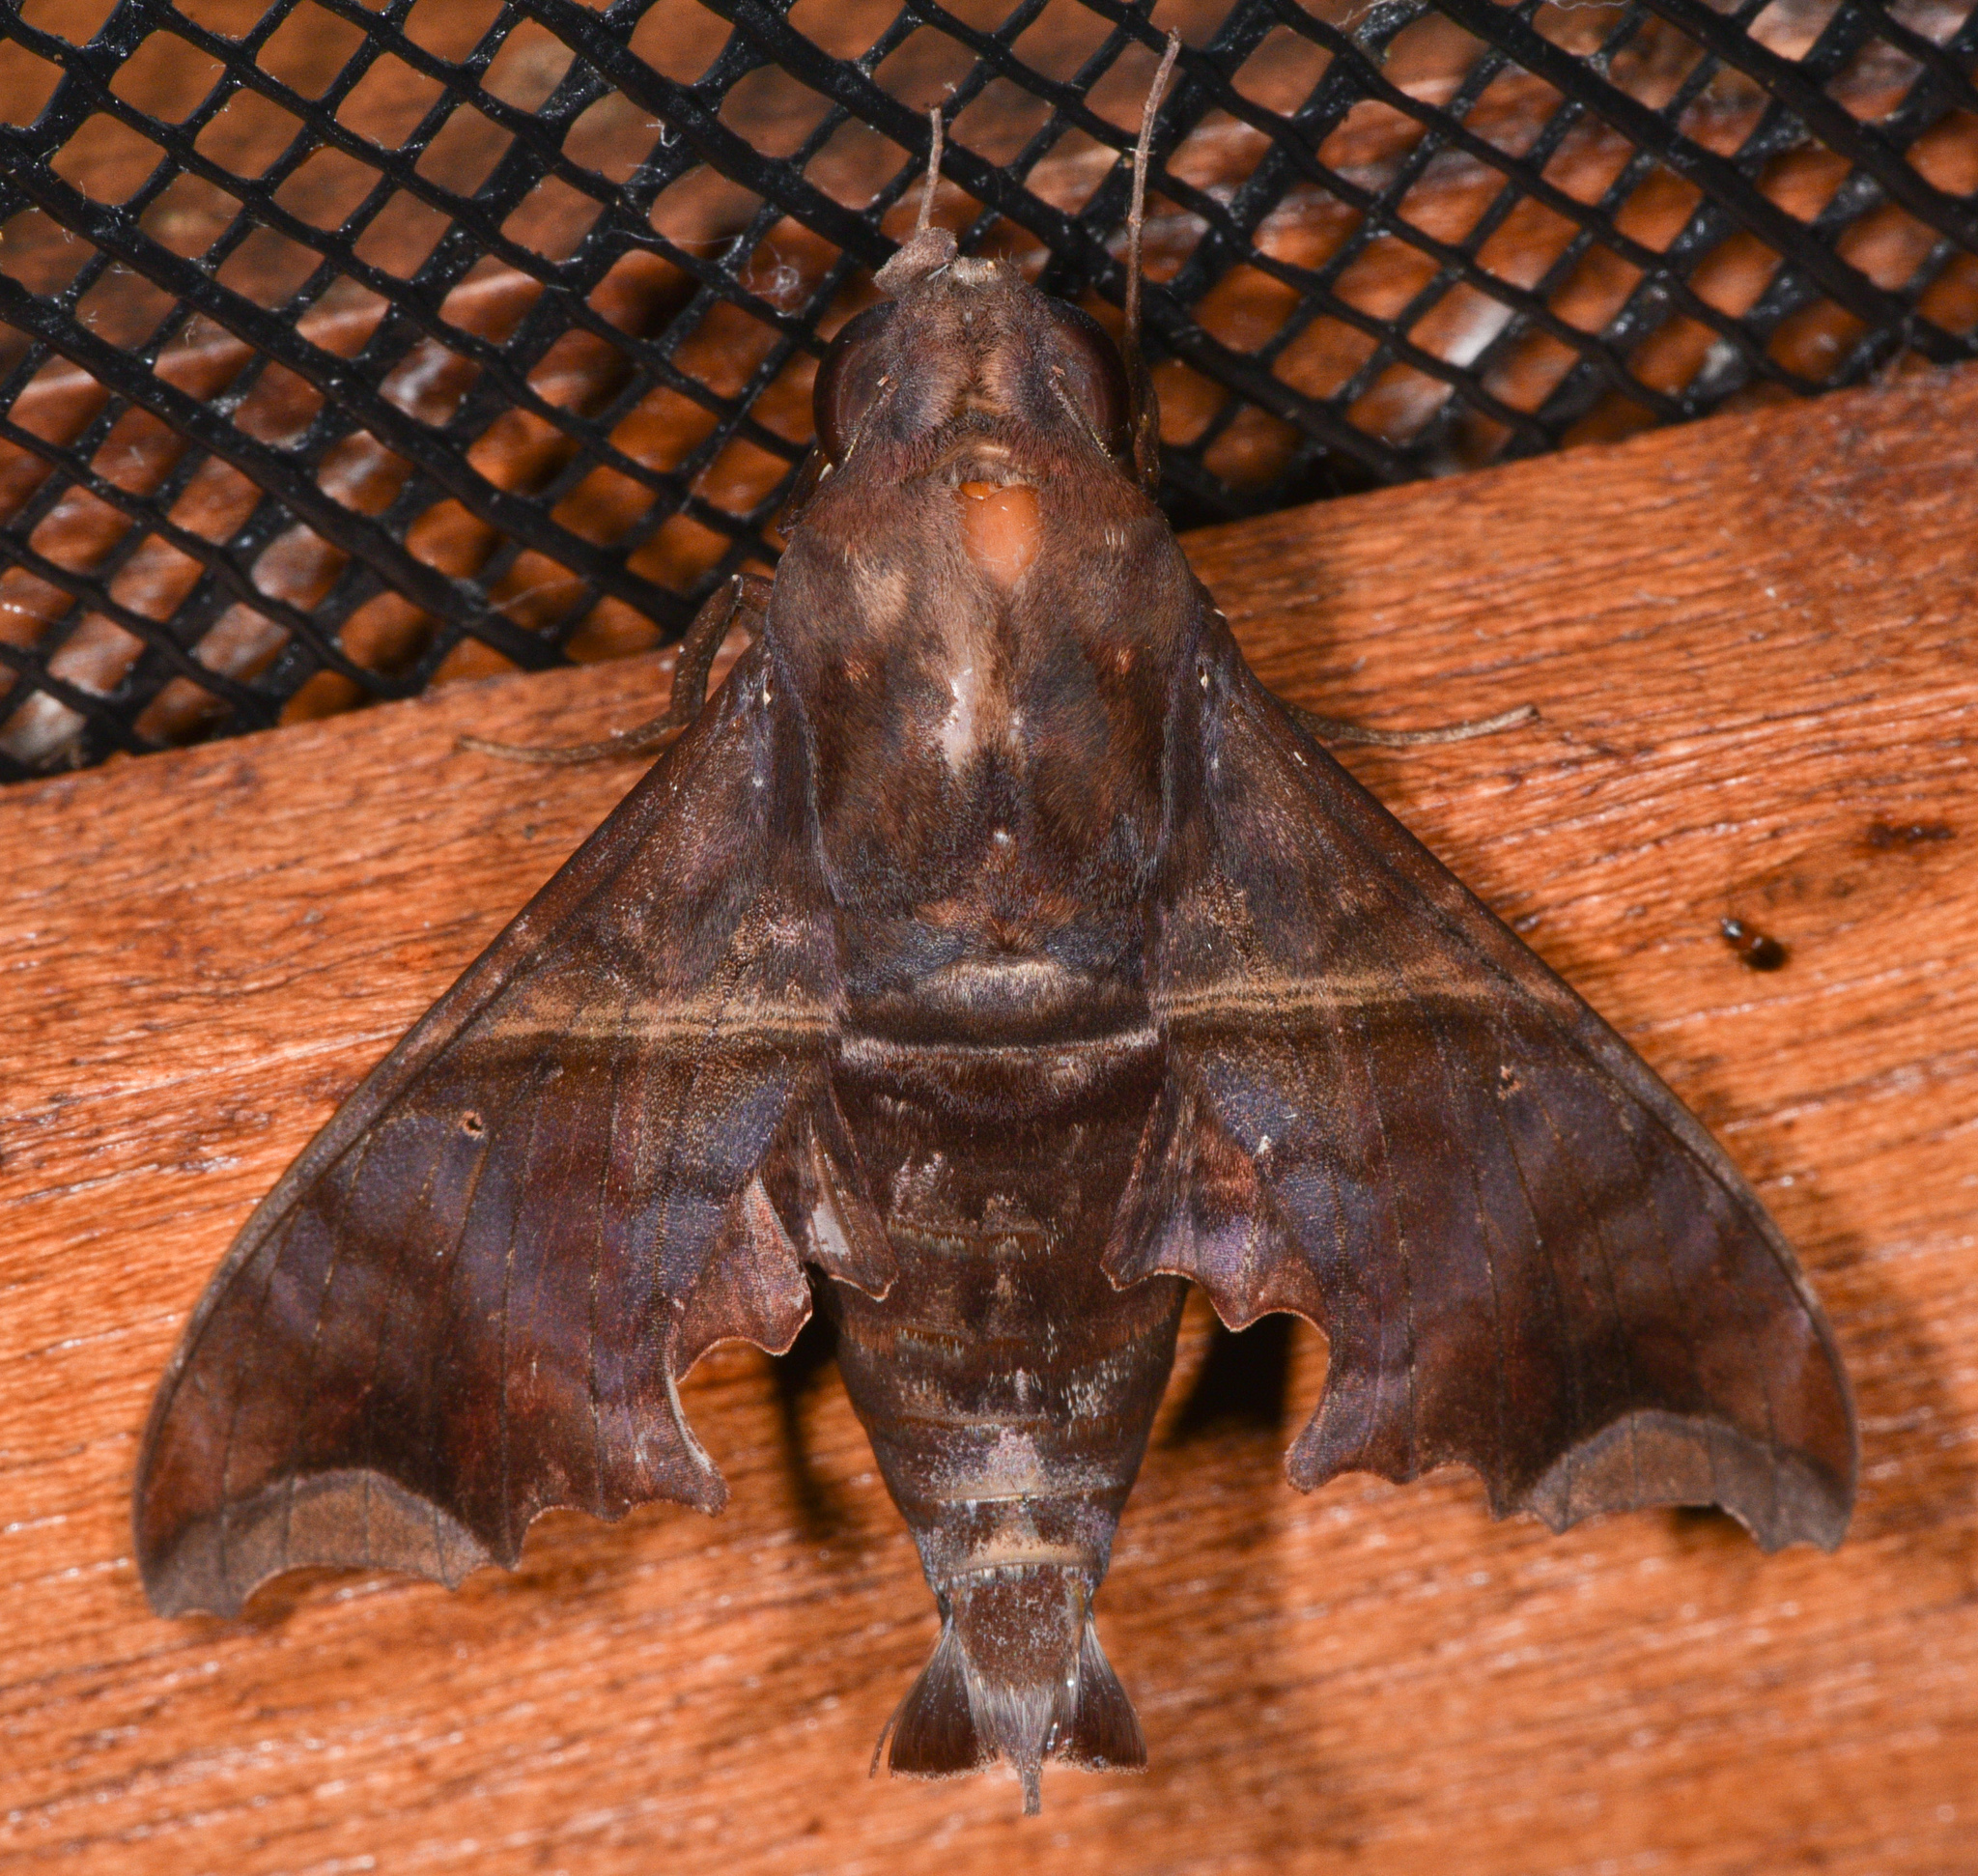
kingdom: Animalia
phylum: Arthropoda
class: Insecta
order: Lepidoptera
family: Sphingidae
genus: Enyo
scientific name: Enyo ocypete
